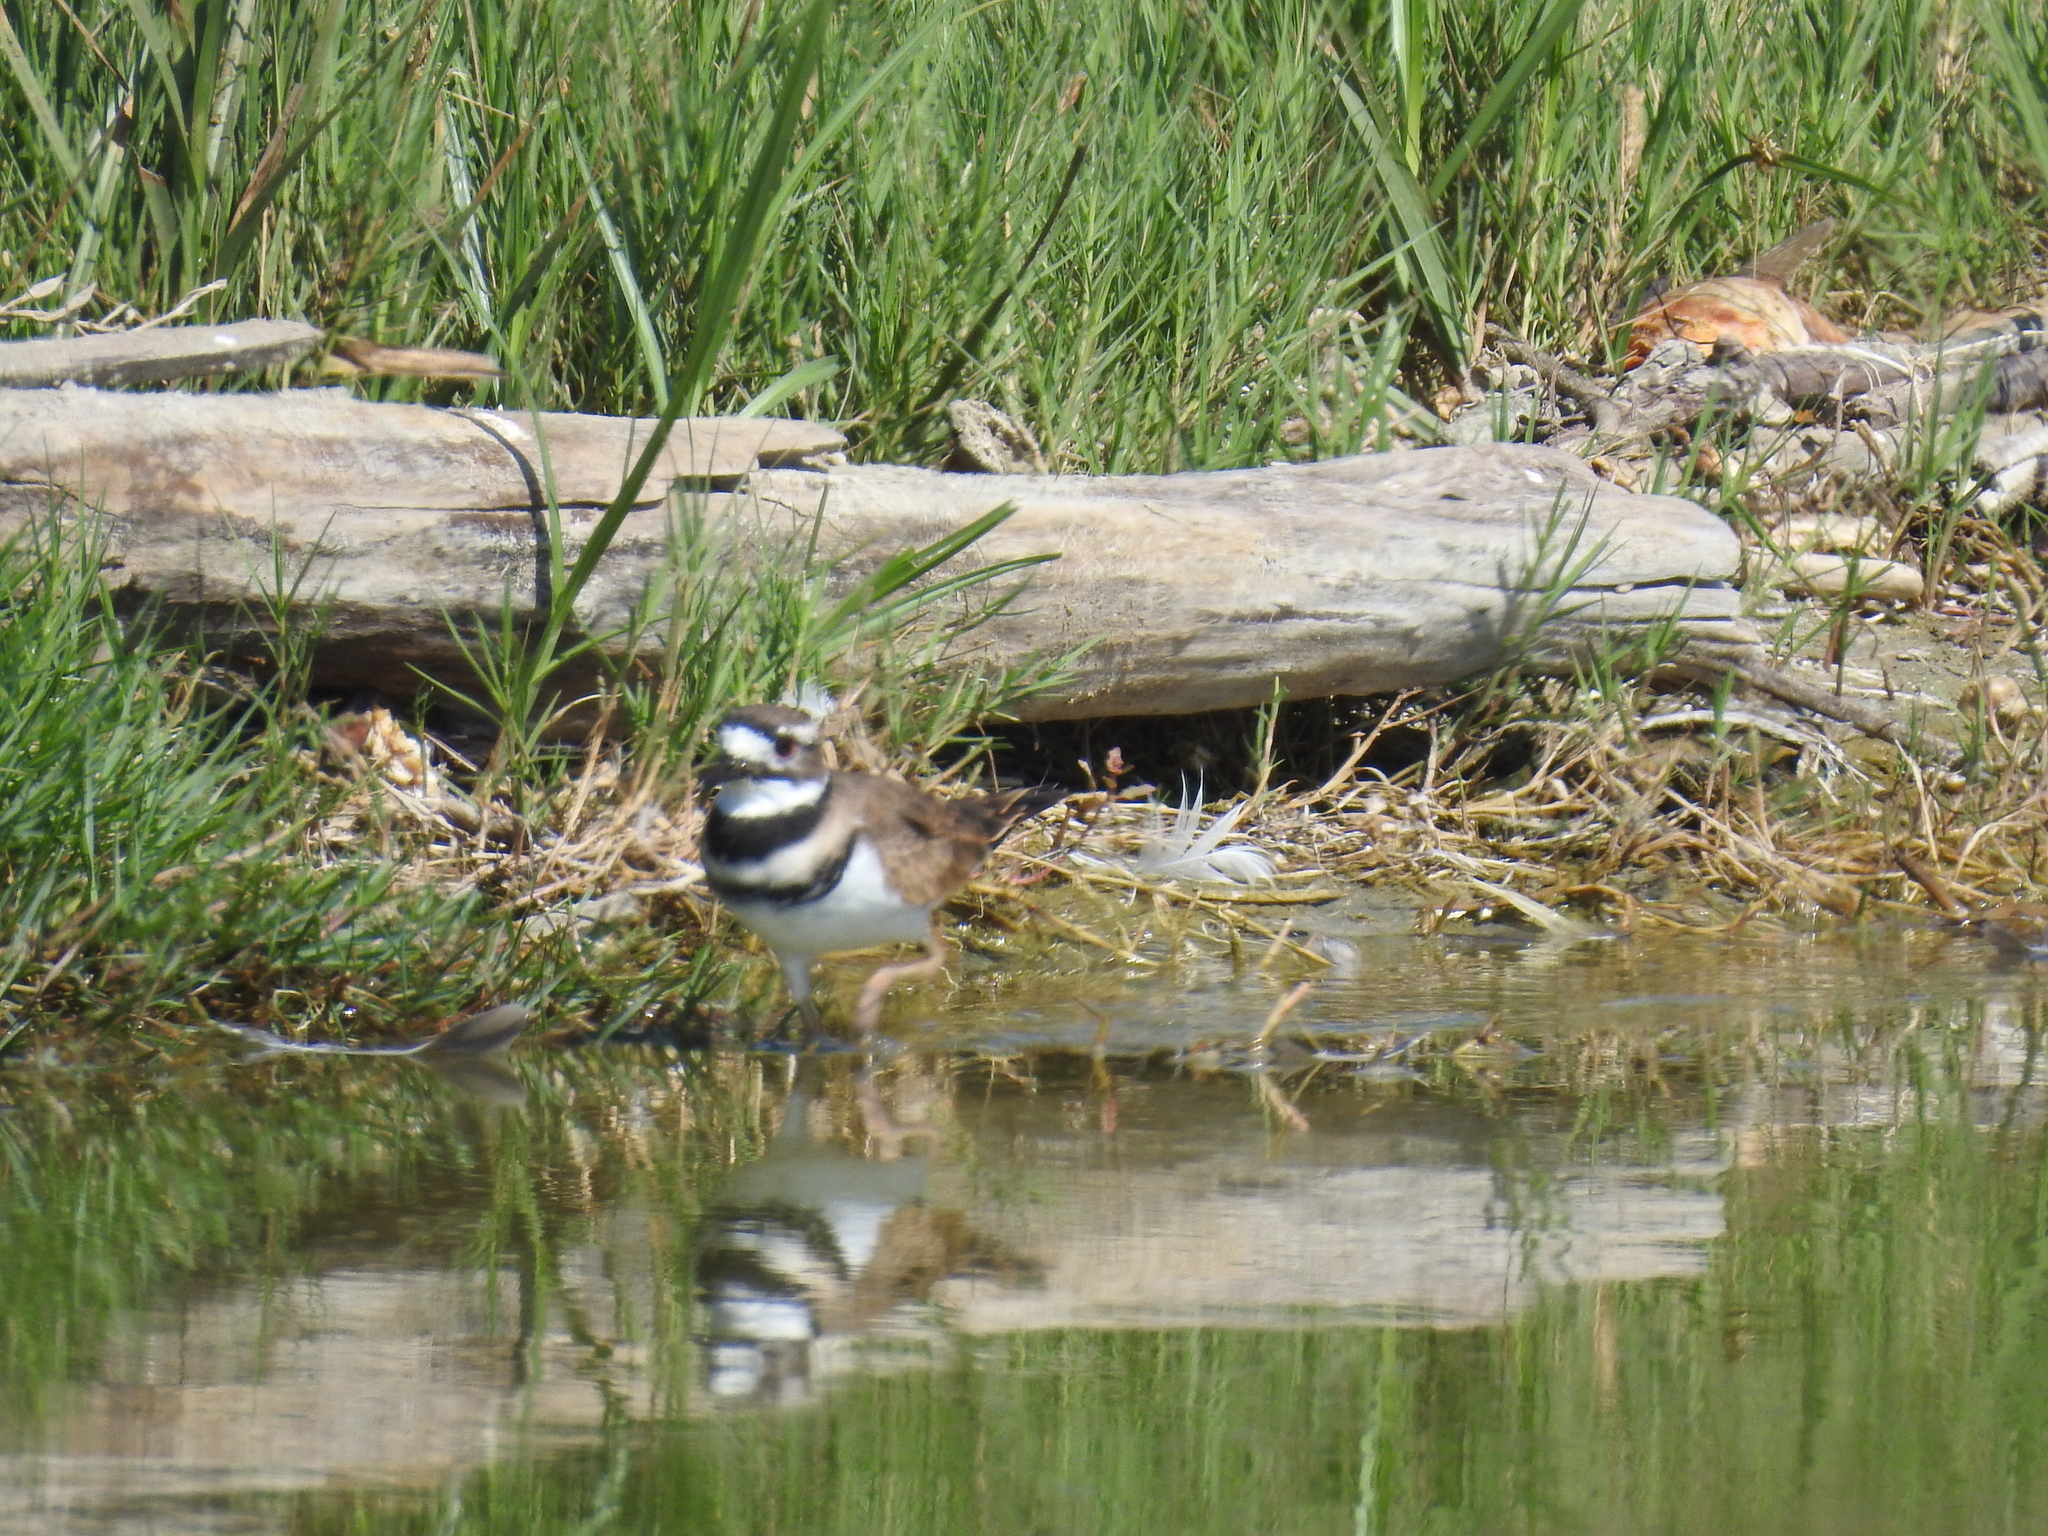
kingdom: Animalia
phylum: Chordata
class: Aves
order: Charadriiformes
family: Charadriidae
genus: Charadrius
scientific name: Charadrius vociferus
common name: Killdeer
